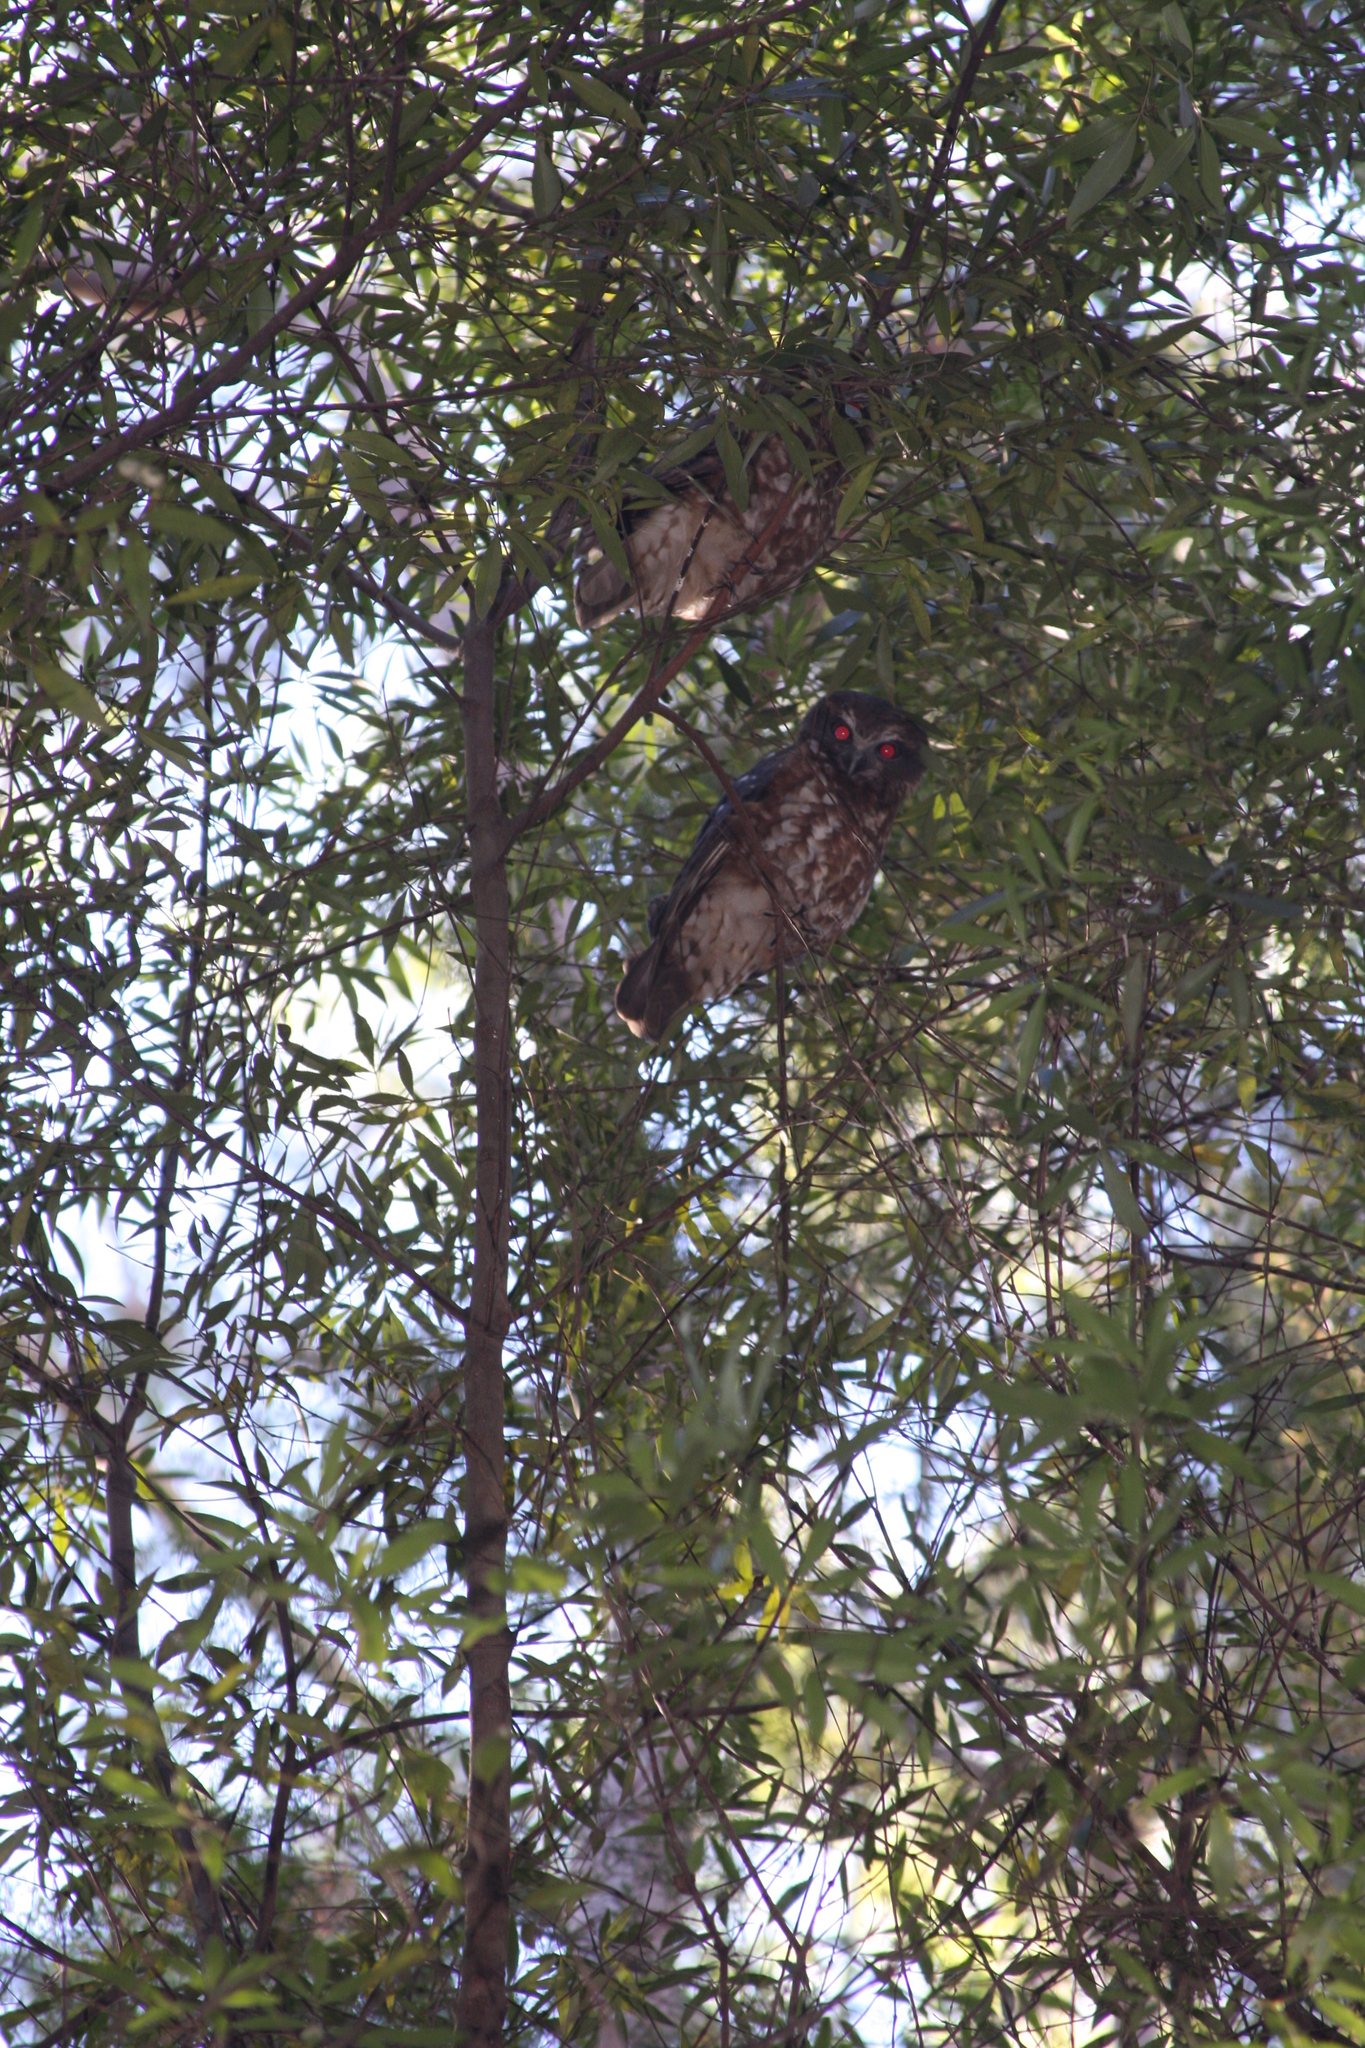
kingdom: Animalia
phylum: Chordata
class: Aves
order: Strigiformes
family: Strigidae
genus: Ninox
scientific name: Ninox boobook
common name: Southern boobook
